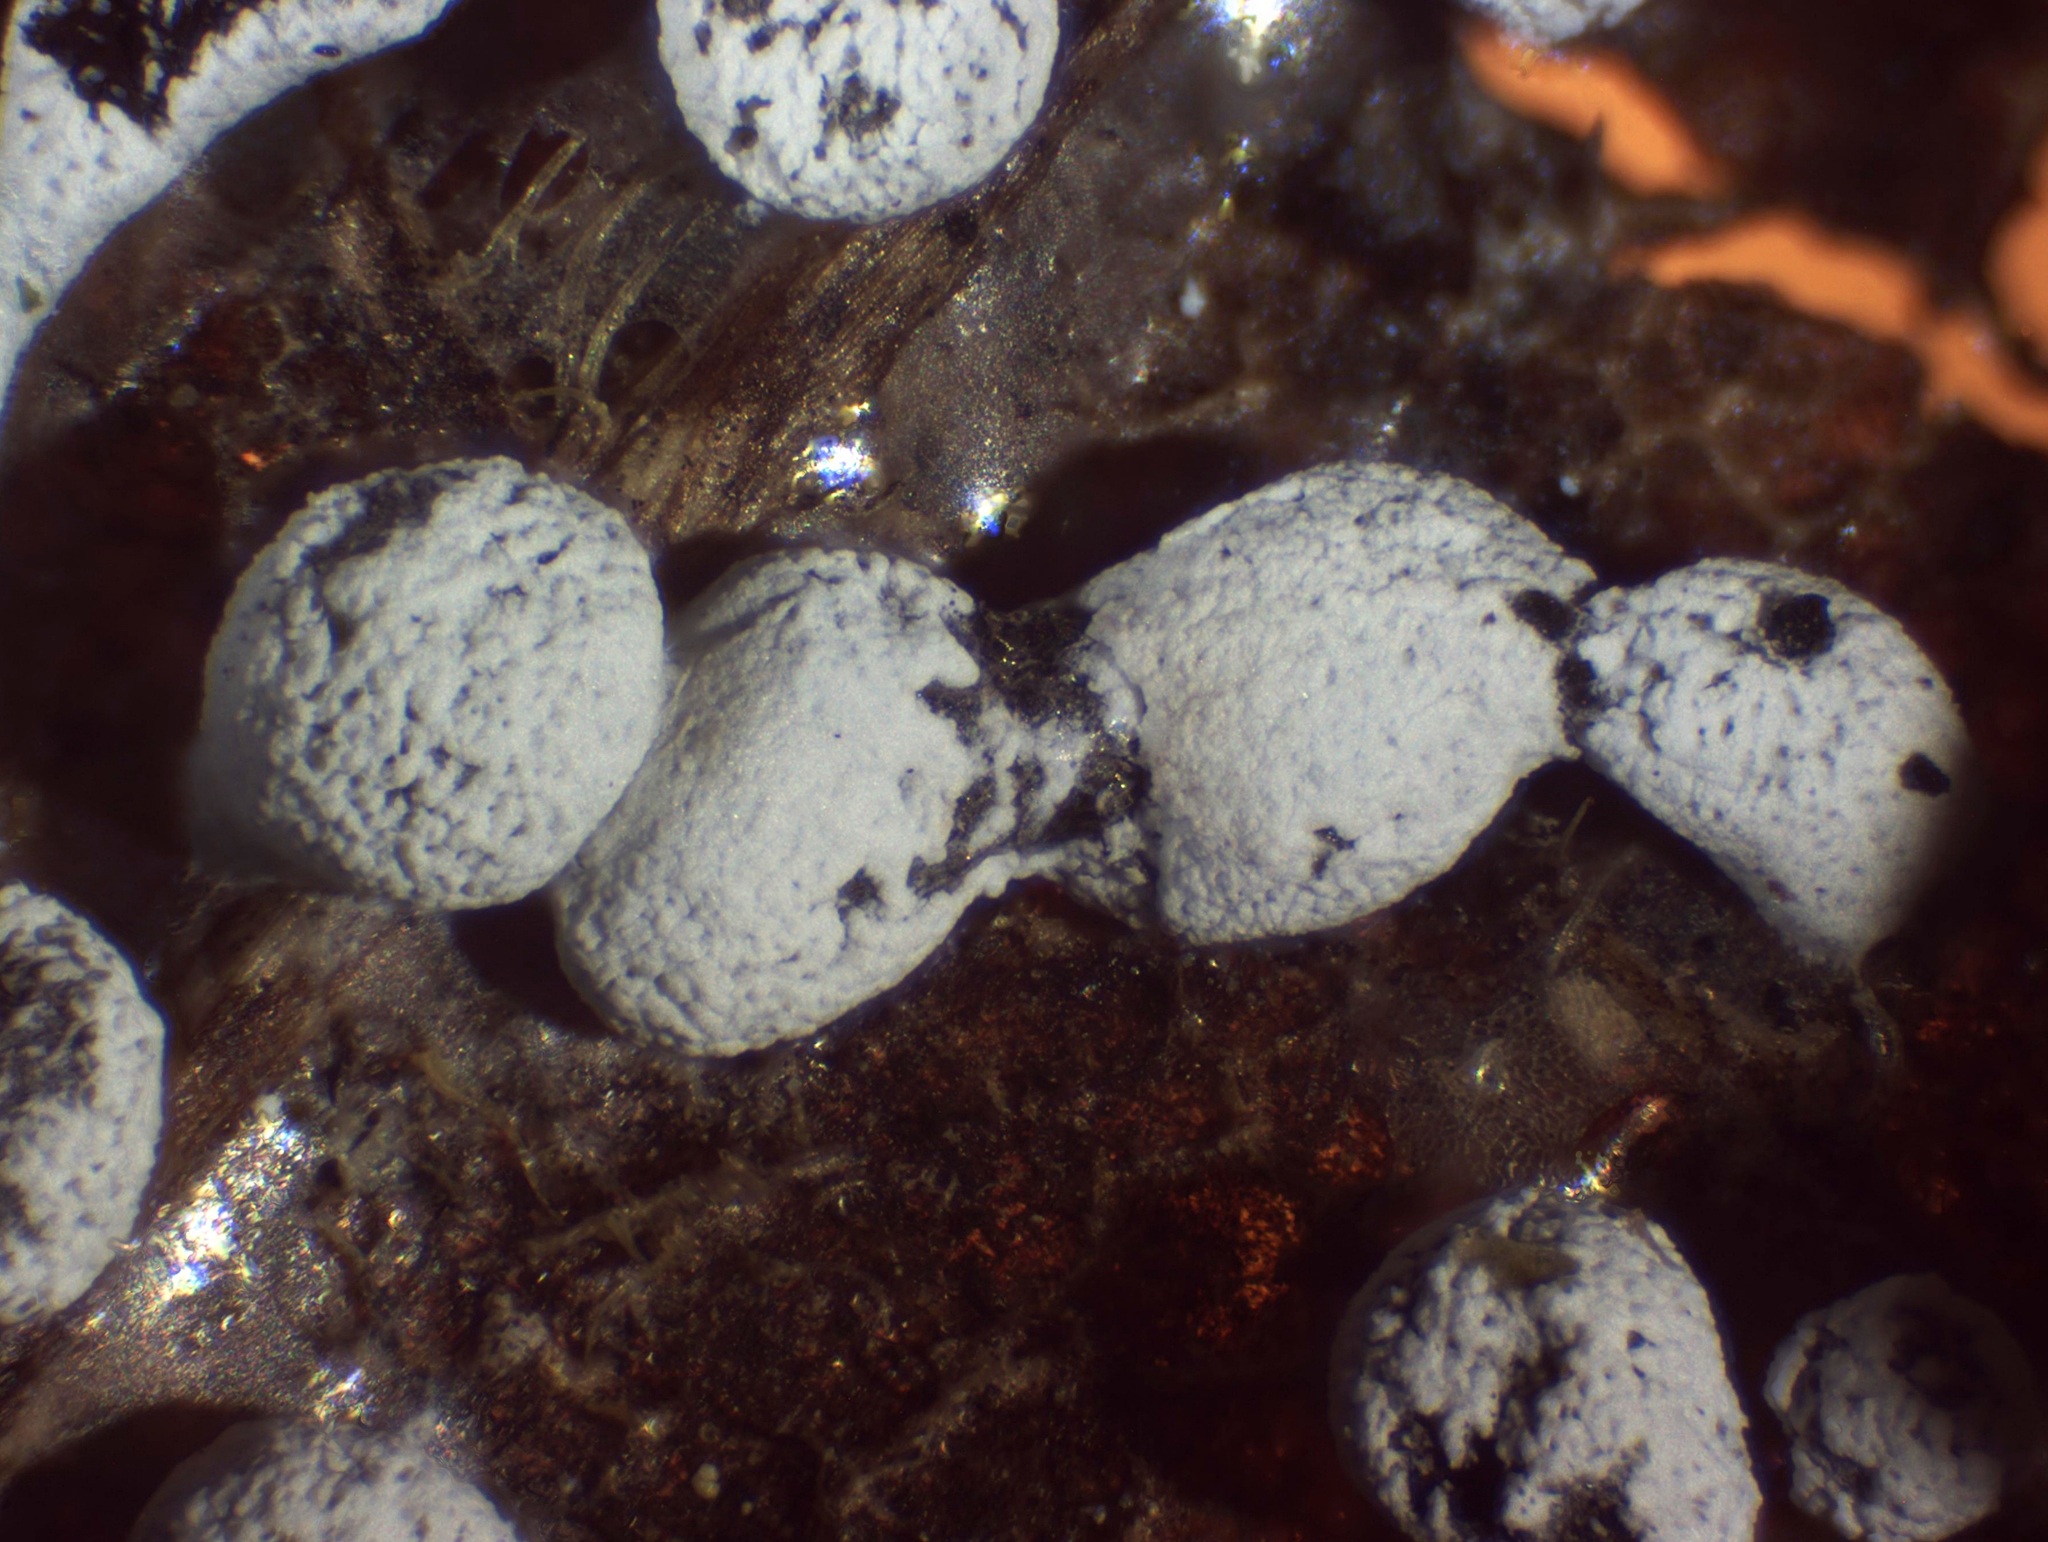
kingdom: Protozoa
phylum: Mycetozoa
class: Myxomycetes
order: Physarales
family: Physaraceae
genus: Physarum
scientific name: Physarum bitectum
